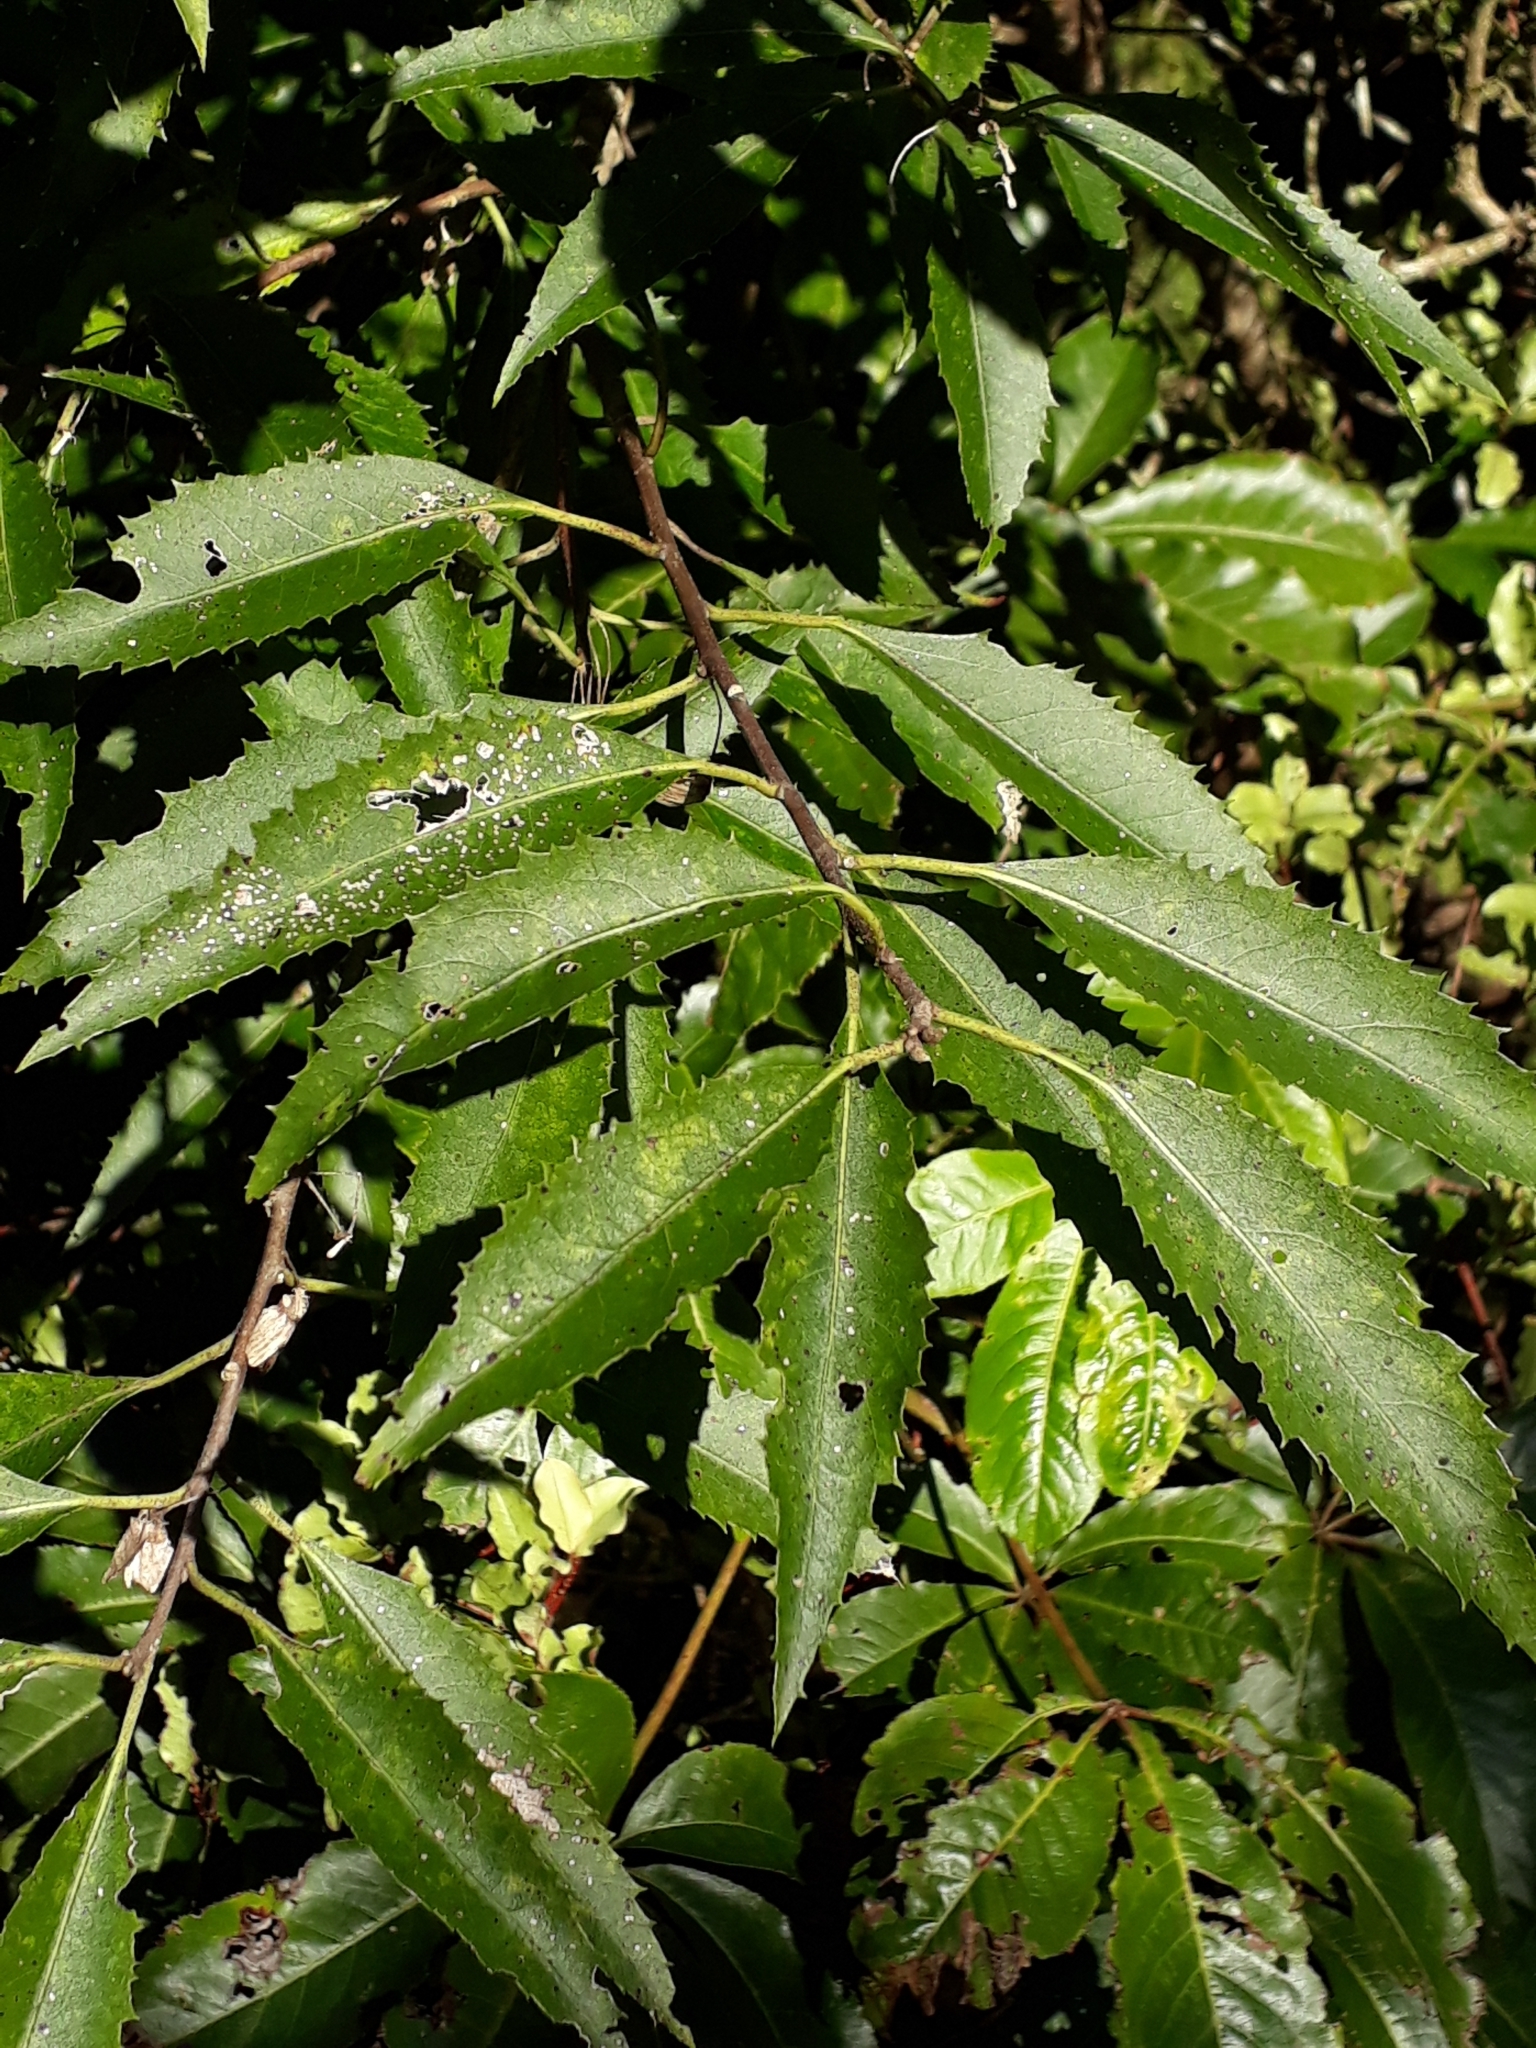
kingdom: Plantae
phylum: Tracheophyta
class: Magnoliopsida
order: Malvales
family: Malvaceae
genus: Hoheria
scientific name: Hoheria sexstylosa
